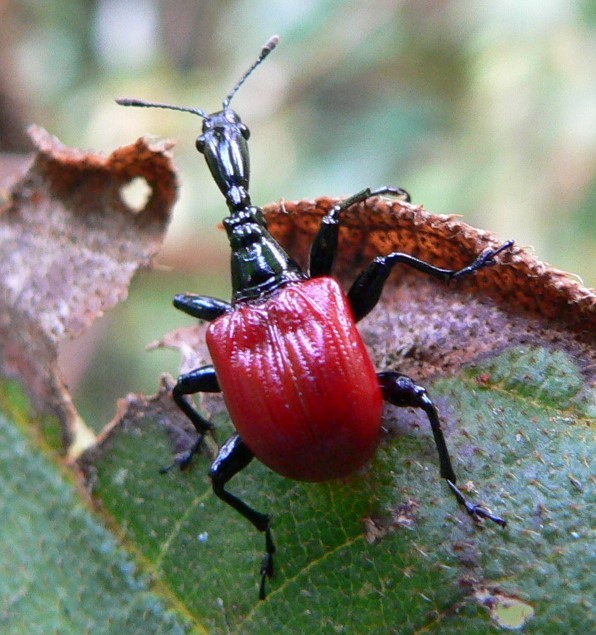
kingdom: Animalia
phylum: Arthropoda
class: Insecta
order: Coleoptera
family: Attelabidae
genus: Trachelophorus
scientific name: Trachelophorus giraffa
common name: Giraffe weevil
